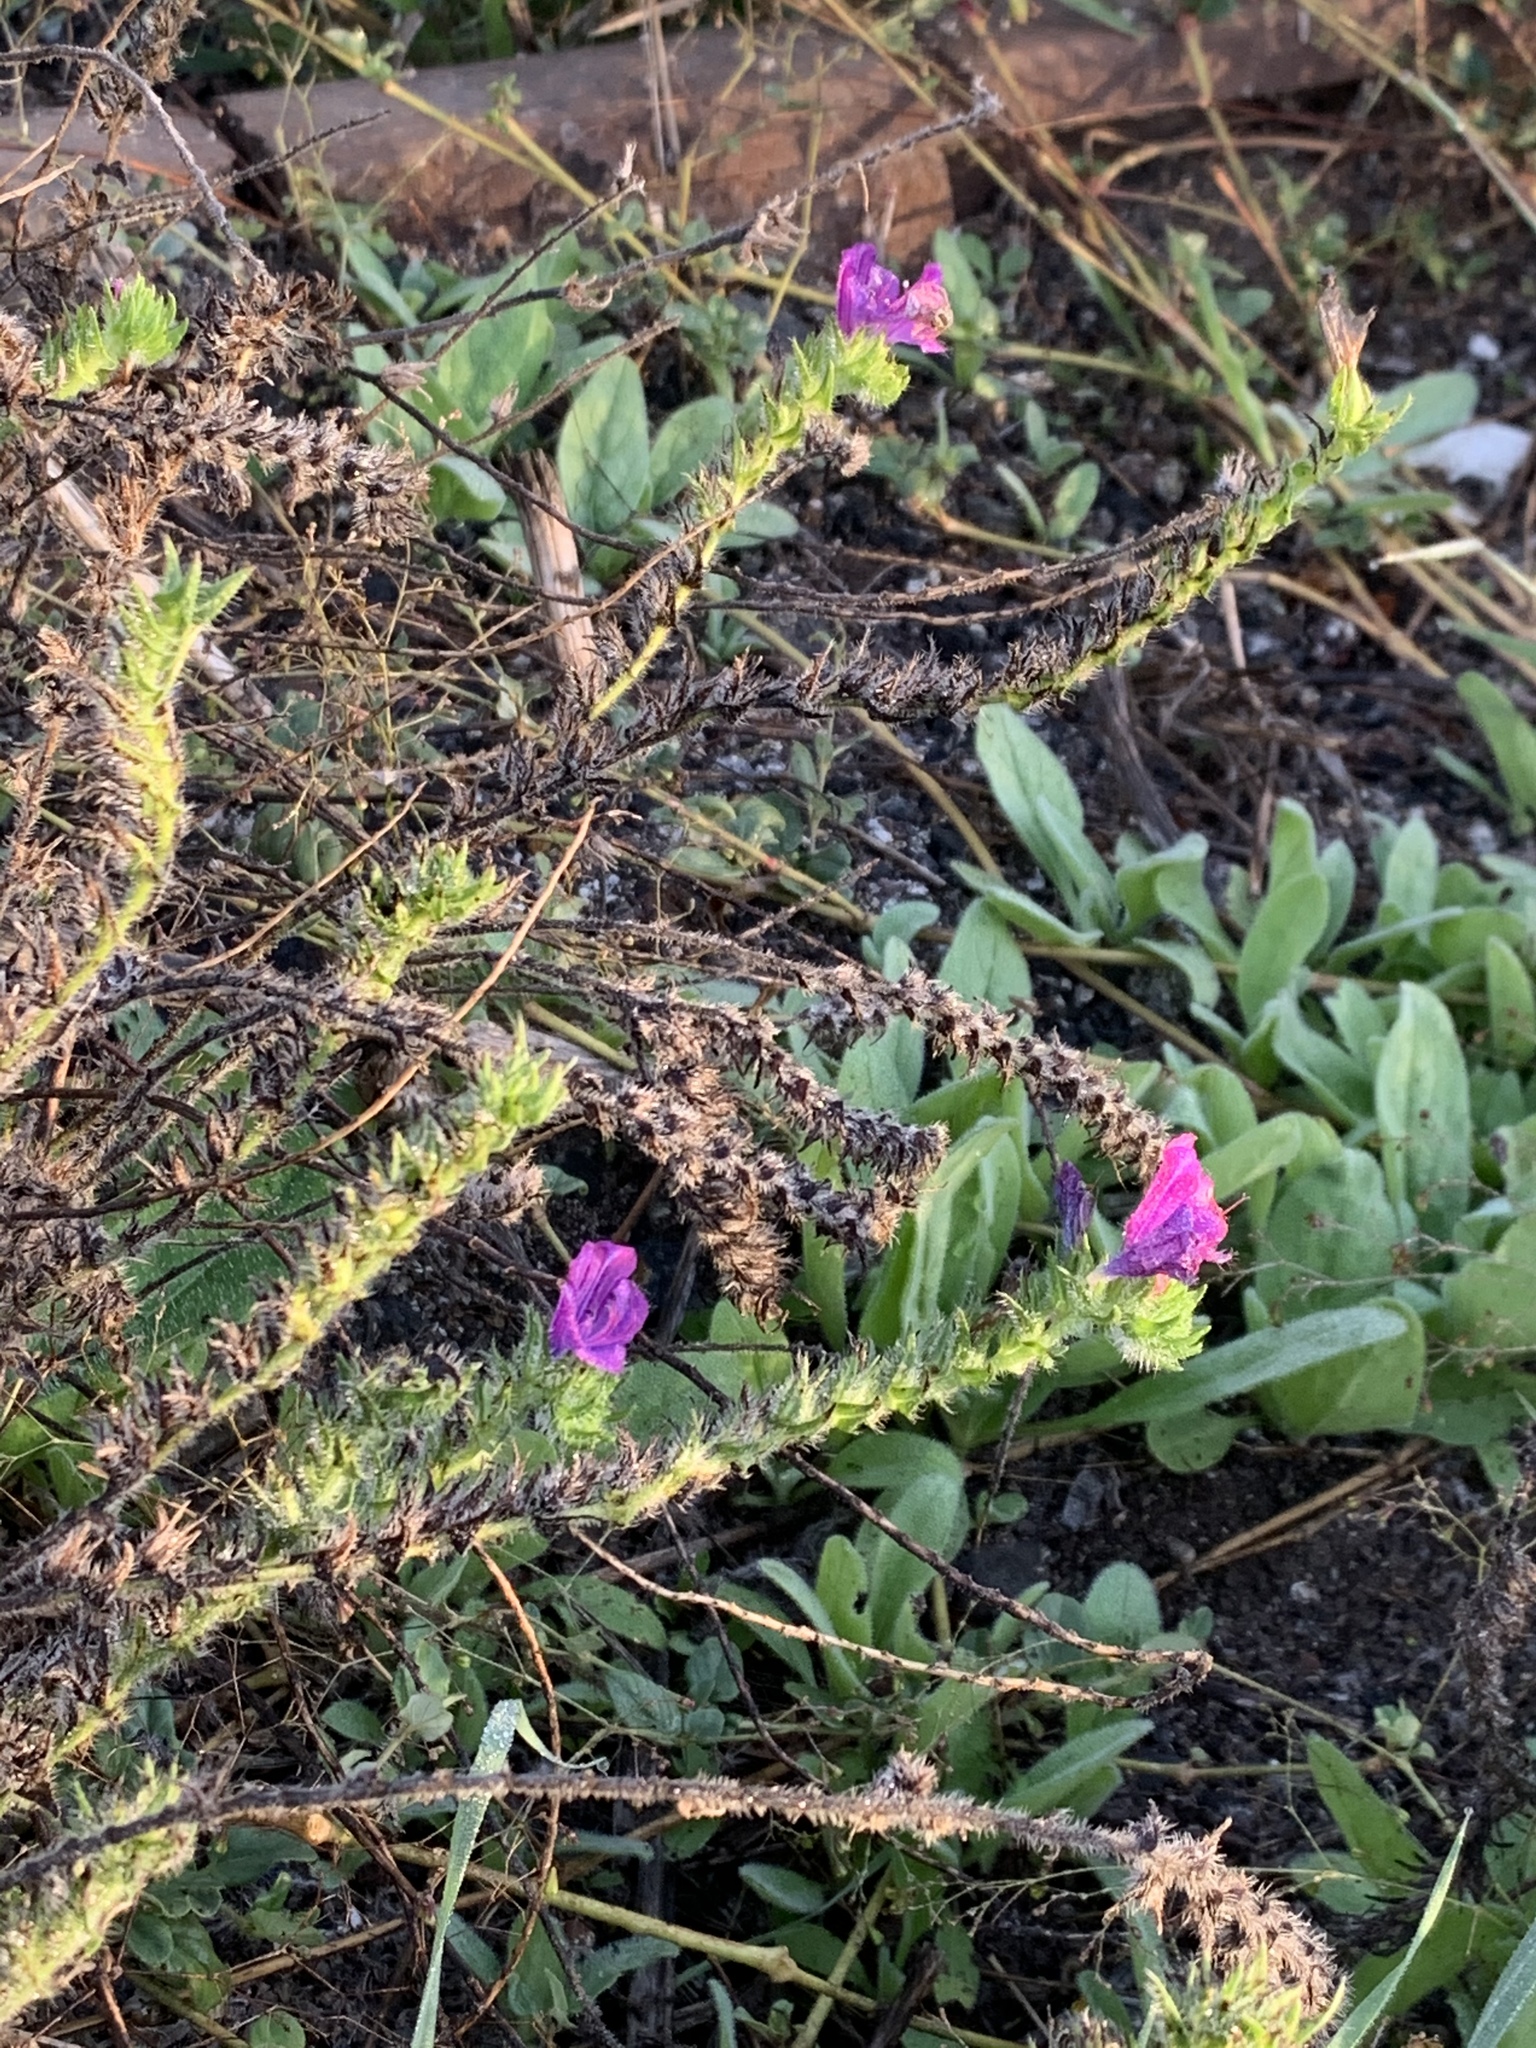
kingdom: Plantae
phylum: Tracheophyta
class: Magnoliopsida
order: Boraginales
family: Boraginaceae
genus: Echium
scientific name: Echium plantagineum
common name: Purple viper's-bugloss
